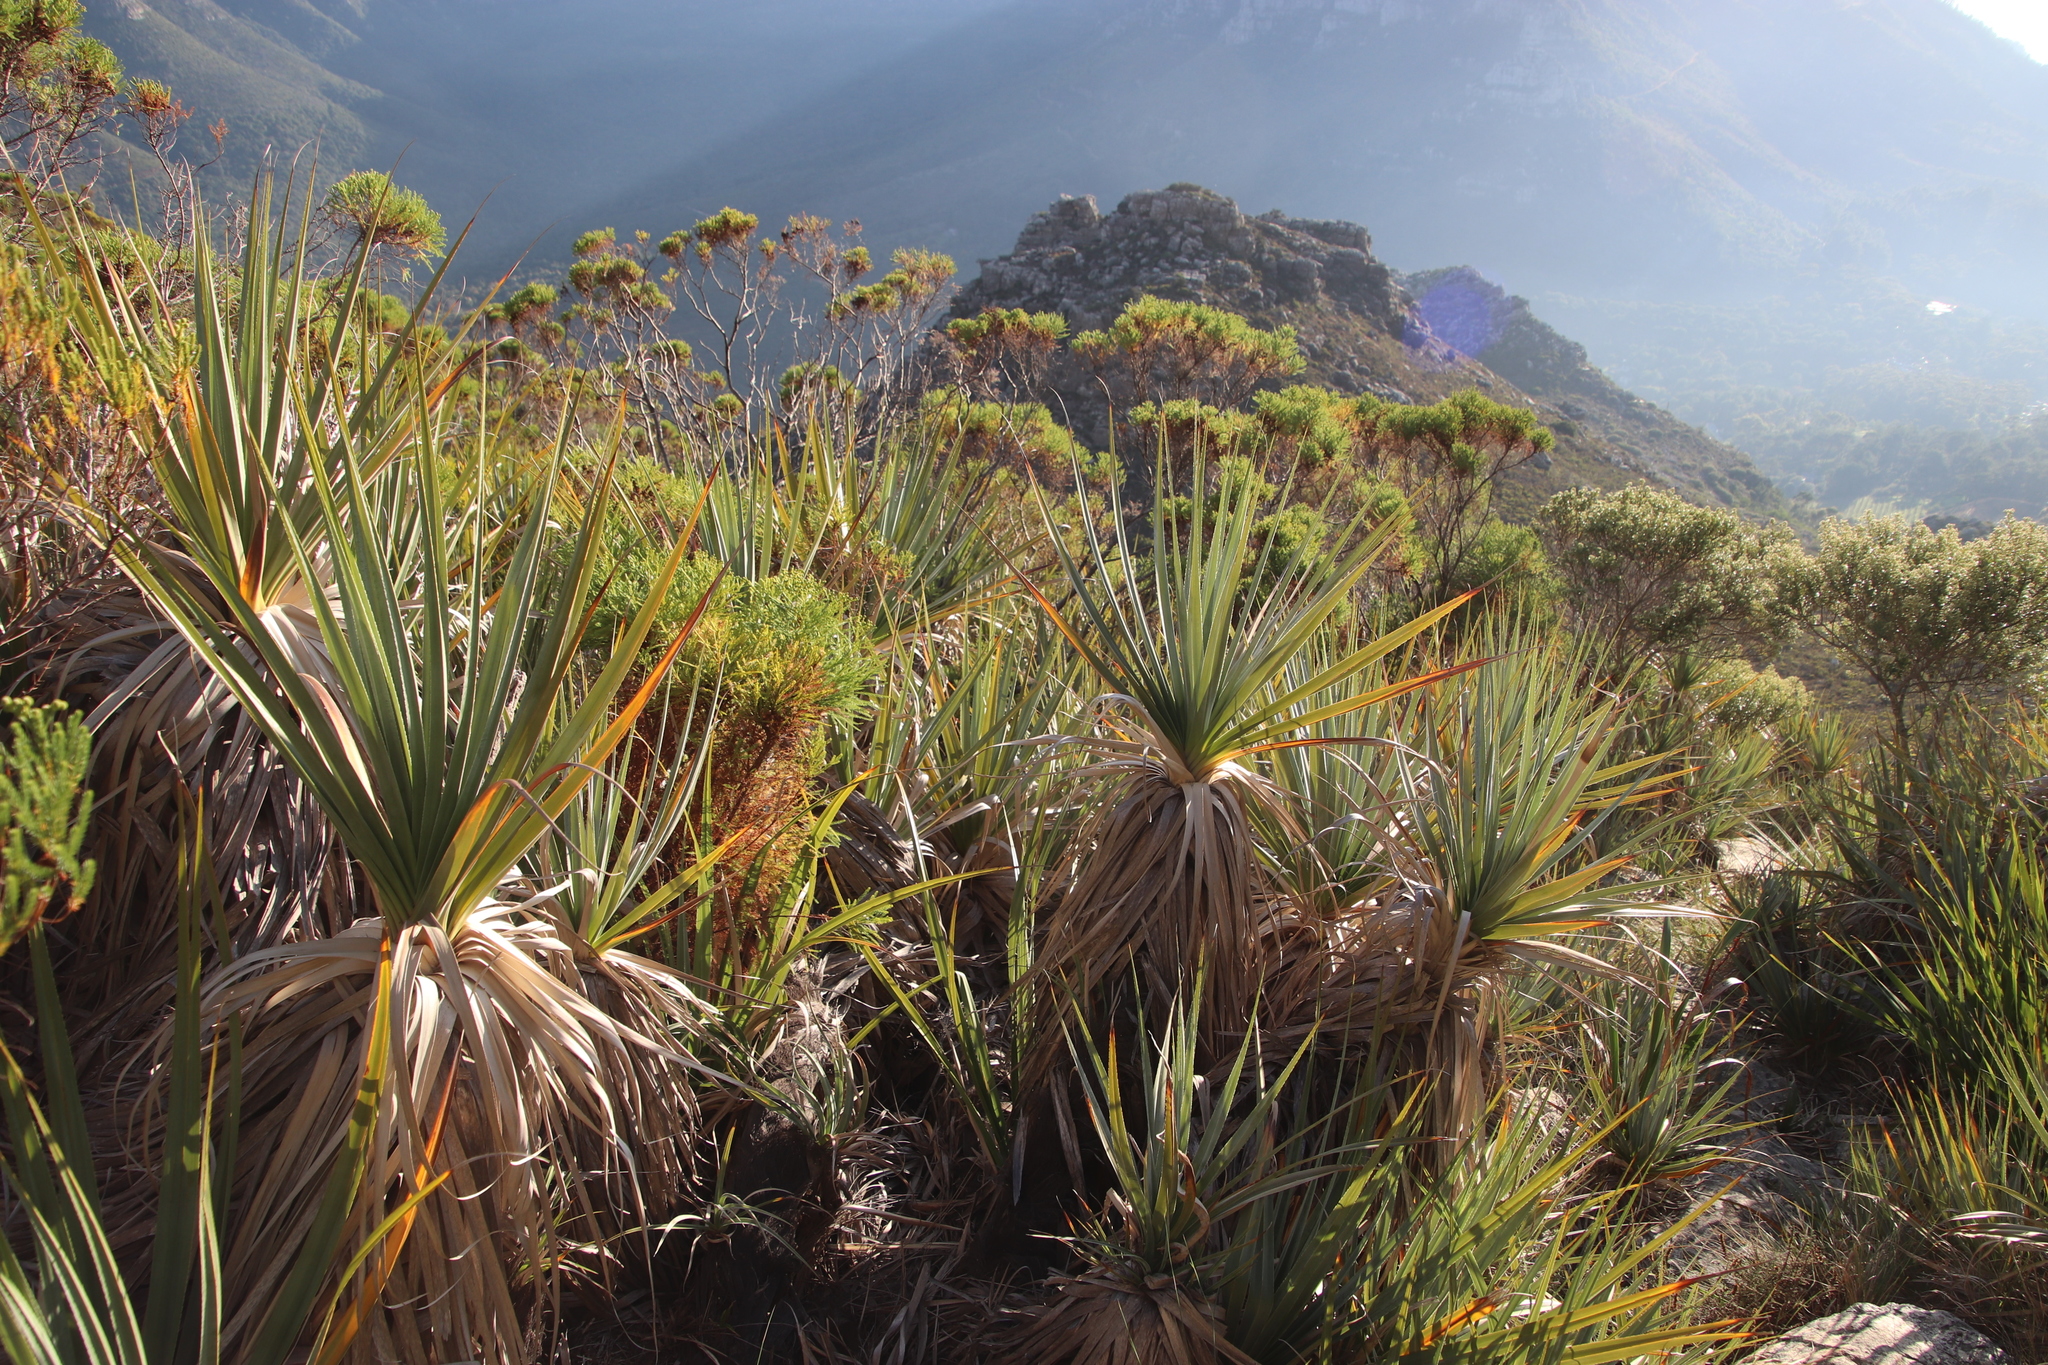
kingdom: Plantae
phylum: Tracheophyta
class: Liliopsida
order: Poales
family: Thurniaceae
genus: Prionium
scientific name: Prionium serratum
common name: Palmiet
